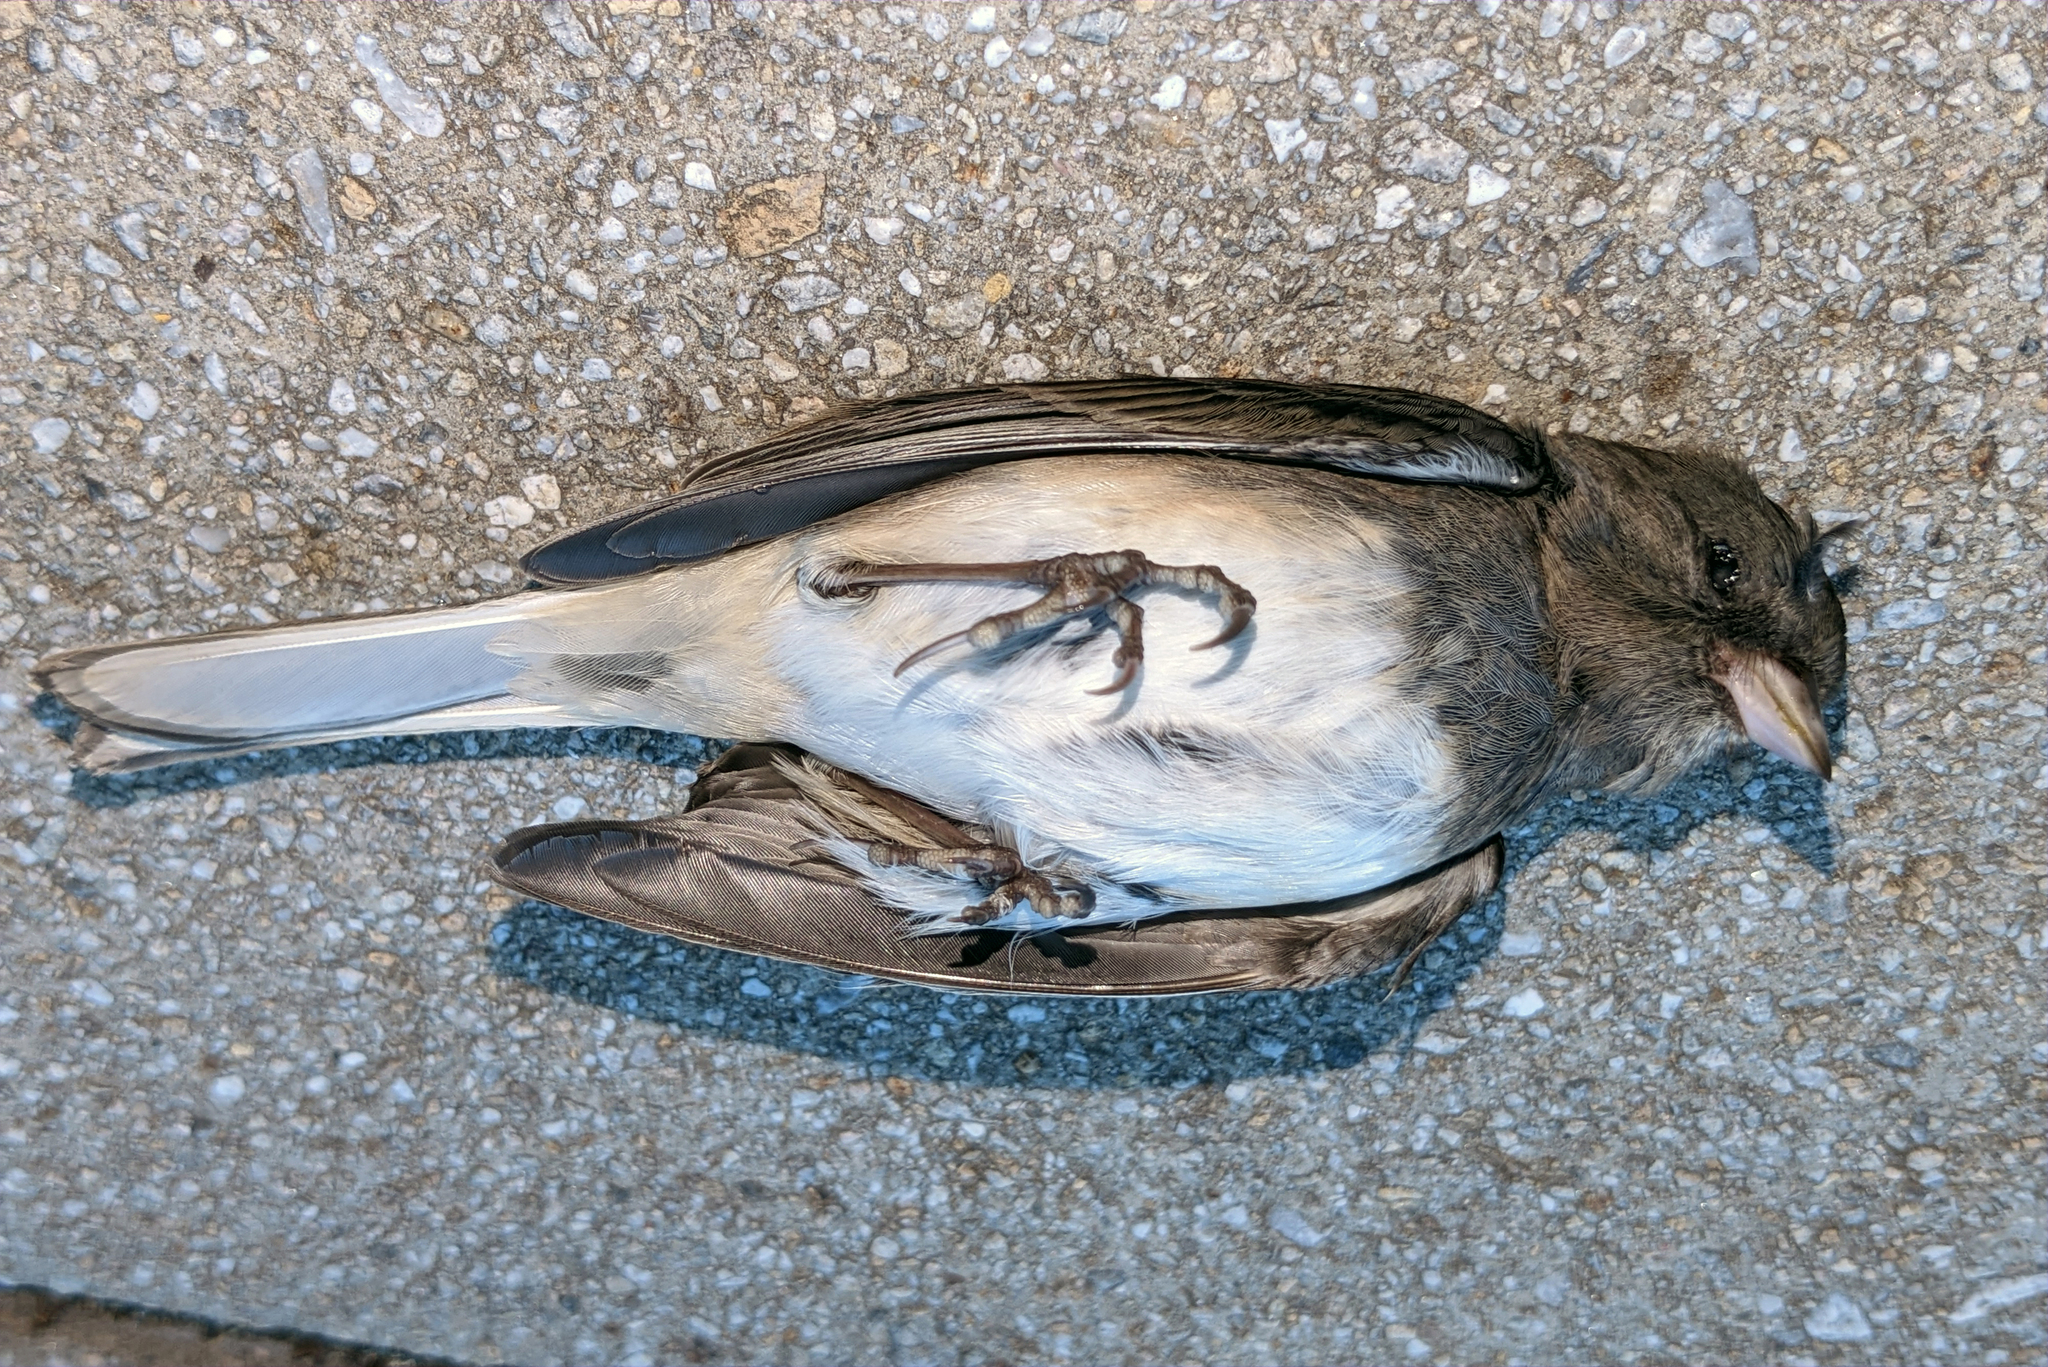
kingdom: Animalia
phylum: Chordata
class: Aves
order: Passeriformes
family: Passerellidae
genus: Junco
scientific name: Junco hyemalis
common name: Dark-eyed junco
